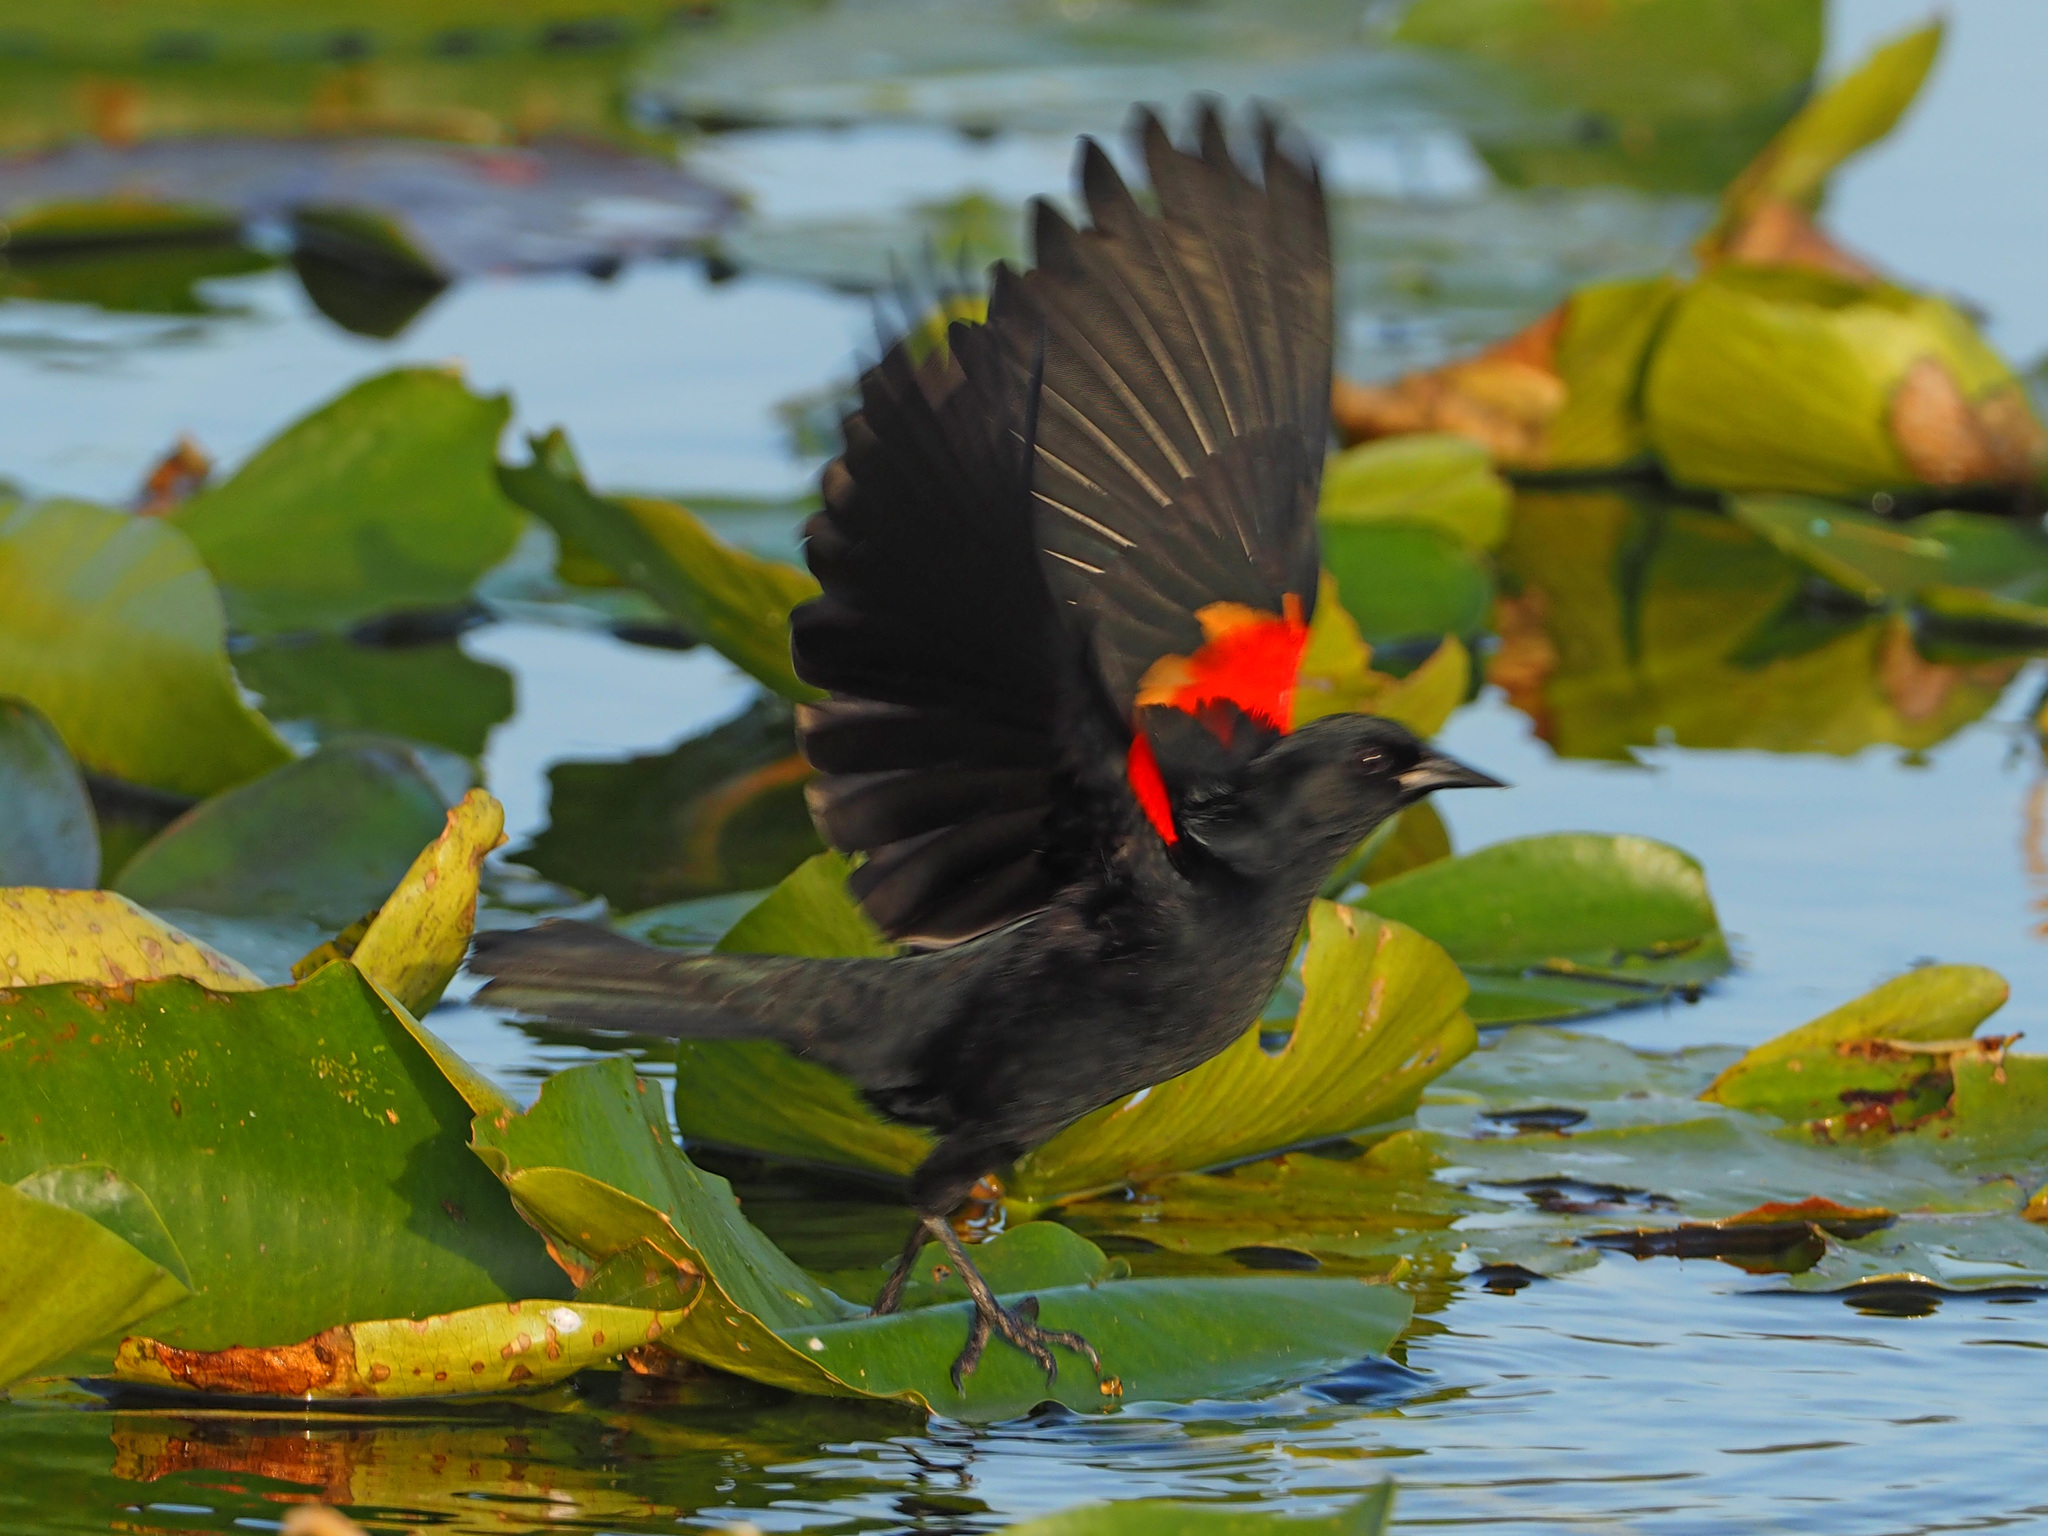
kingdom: Animalia
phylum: Chordata
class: Aves
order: Passeriformes
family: Icteridae
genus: Agelaius
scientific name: Agelaius phoeniceus
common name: Red-winged blackbird
